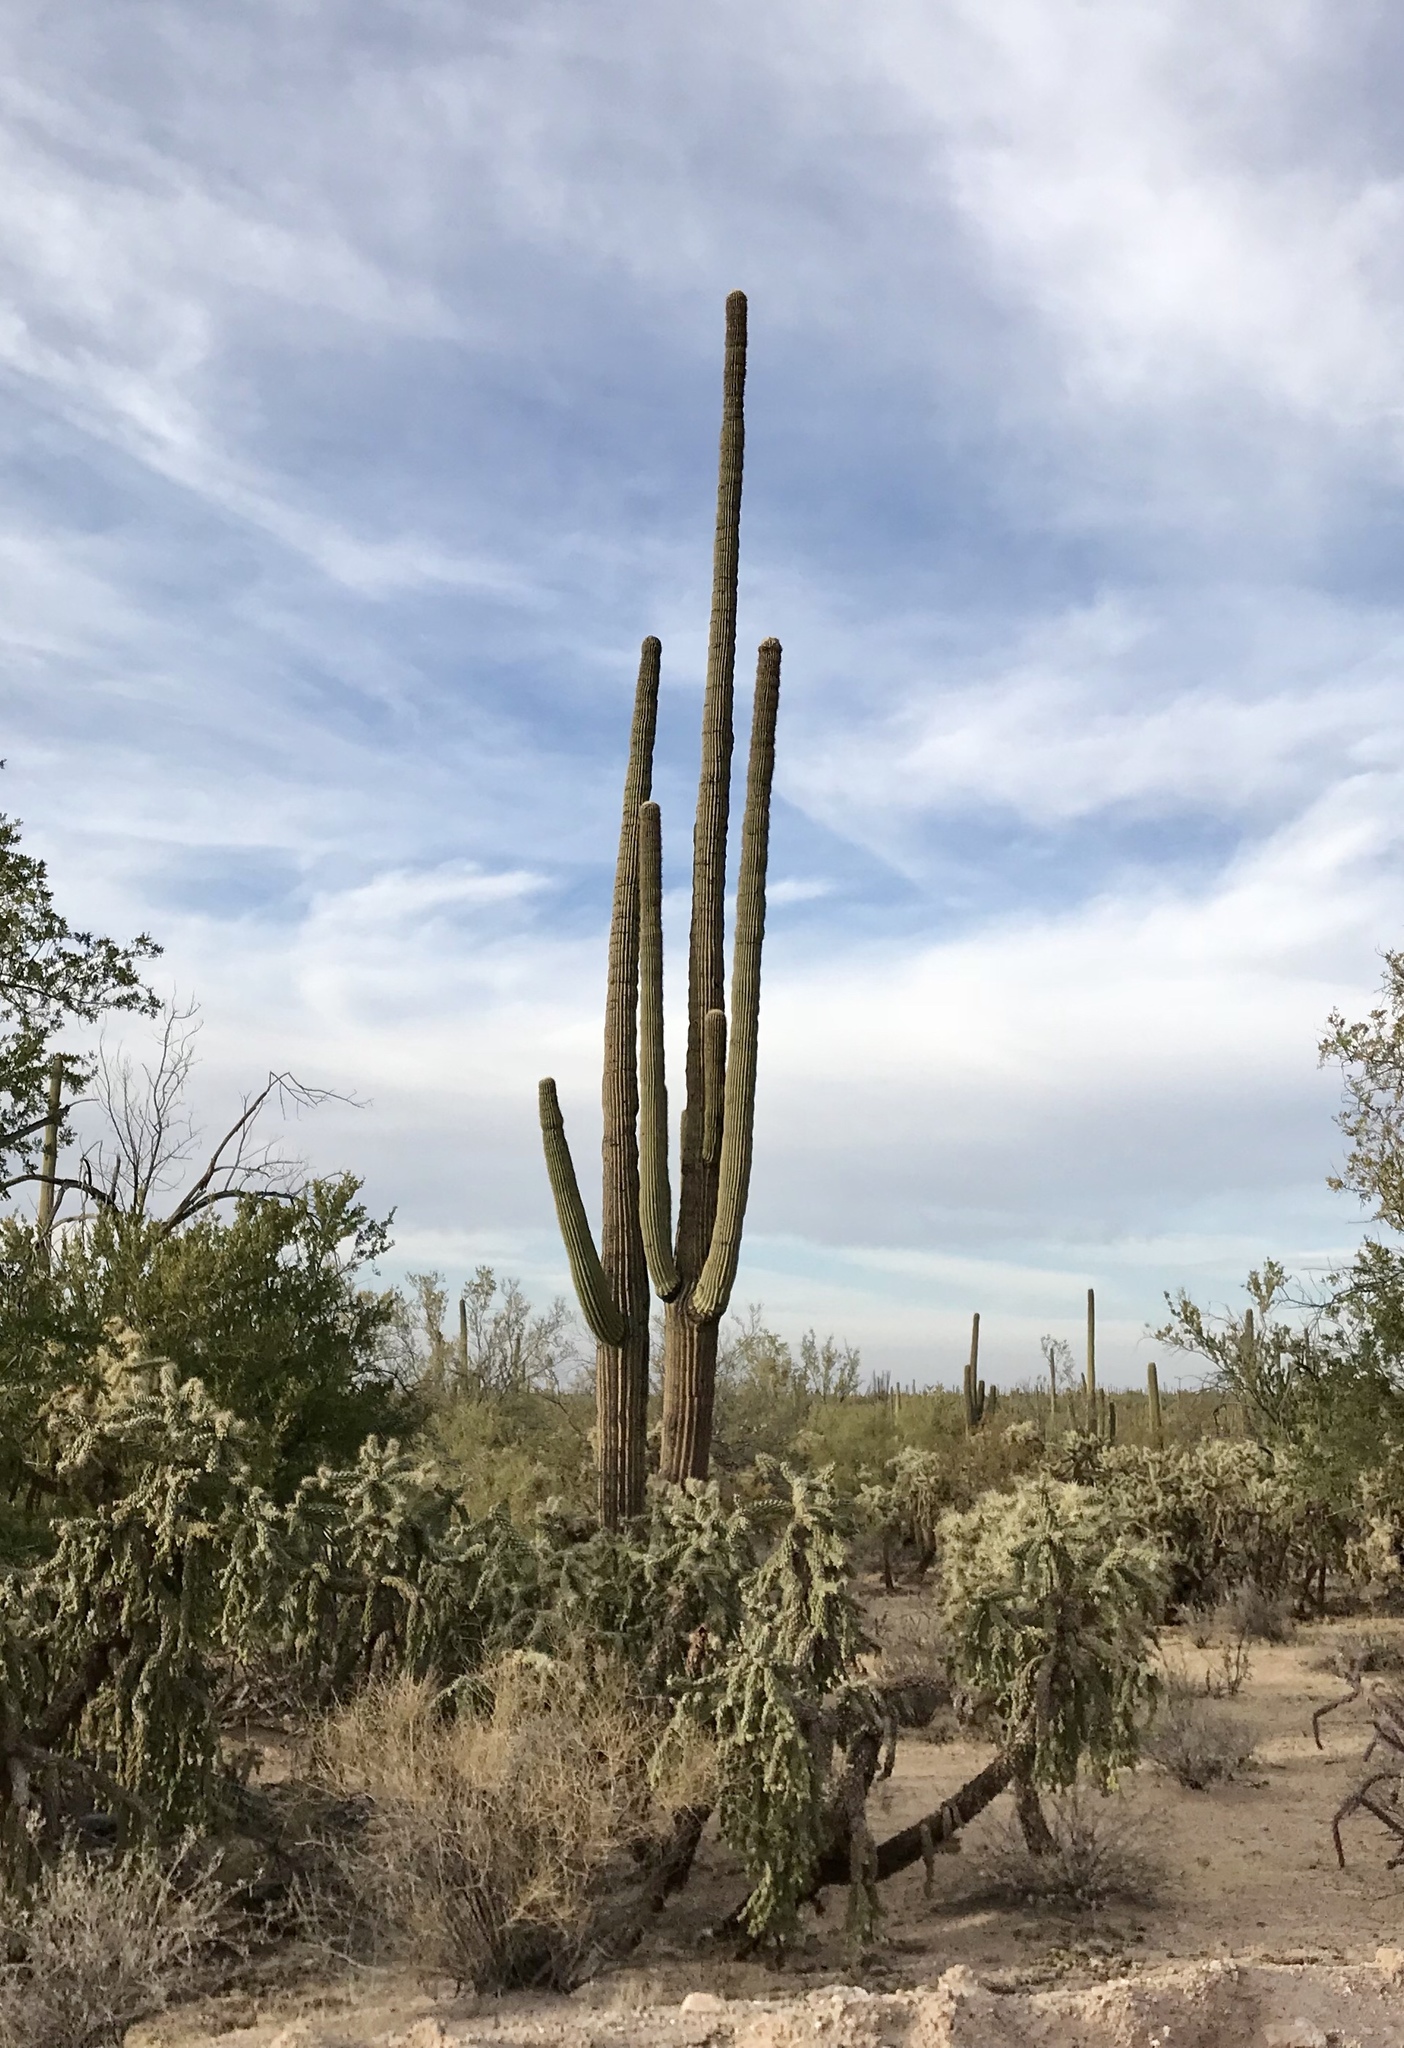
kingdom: Plantae
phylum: Tracheophyta
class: Magnoliopsida
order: Caryophyllales
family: Cactaceae
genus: Carnegiea
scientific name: Carnegiea gigantea
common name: Saguaro
